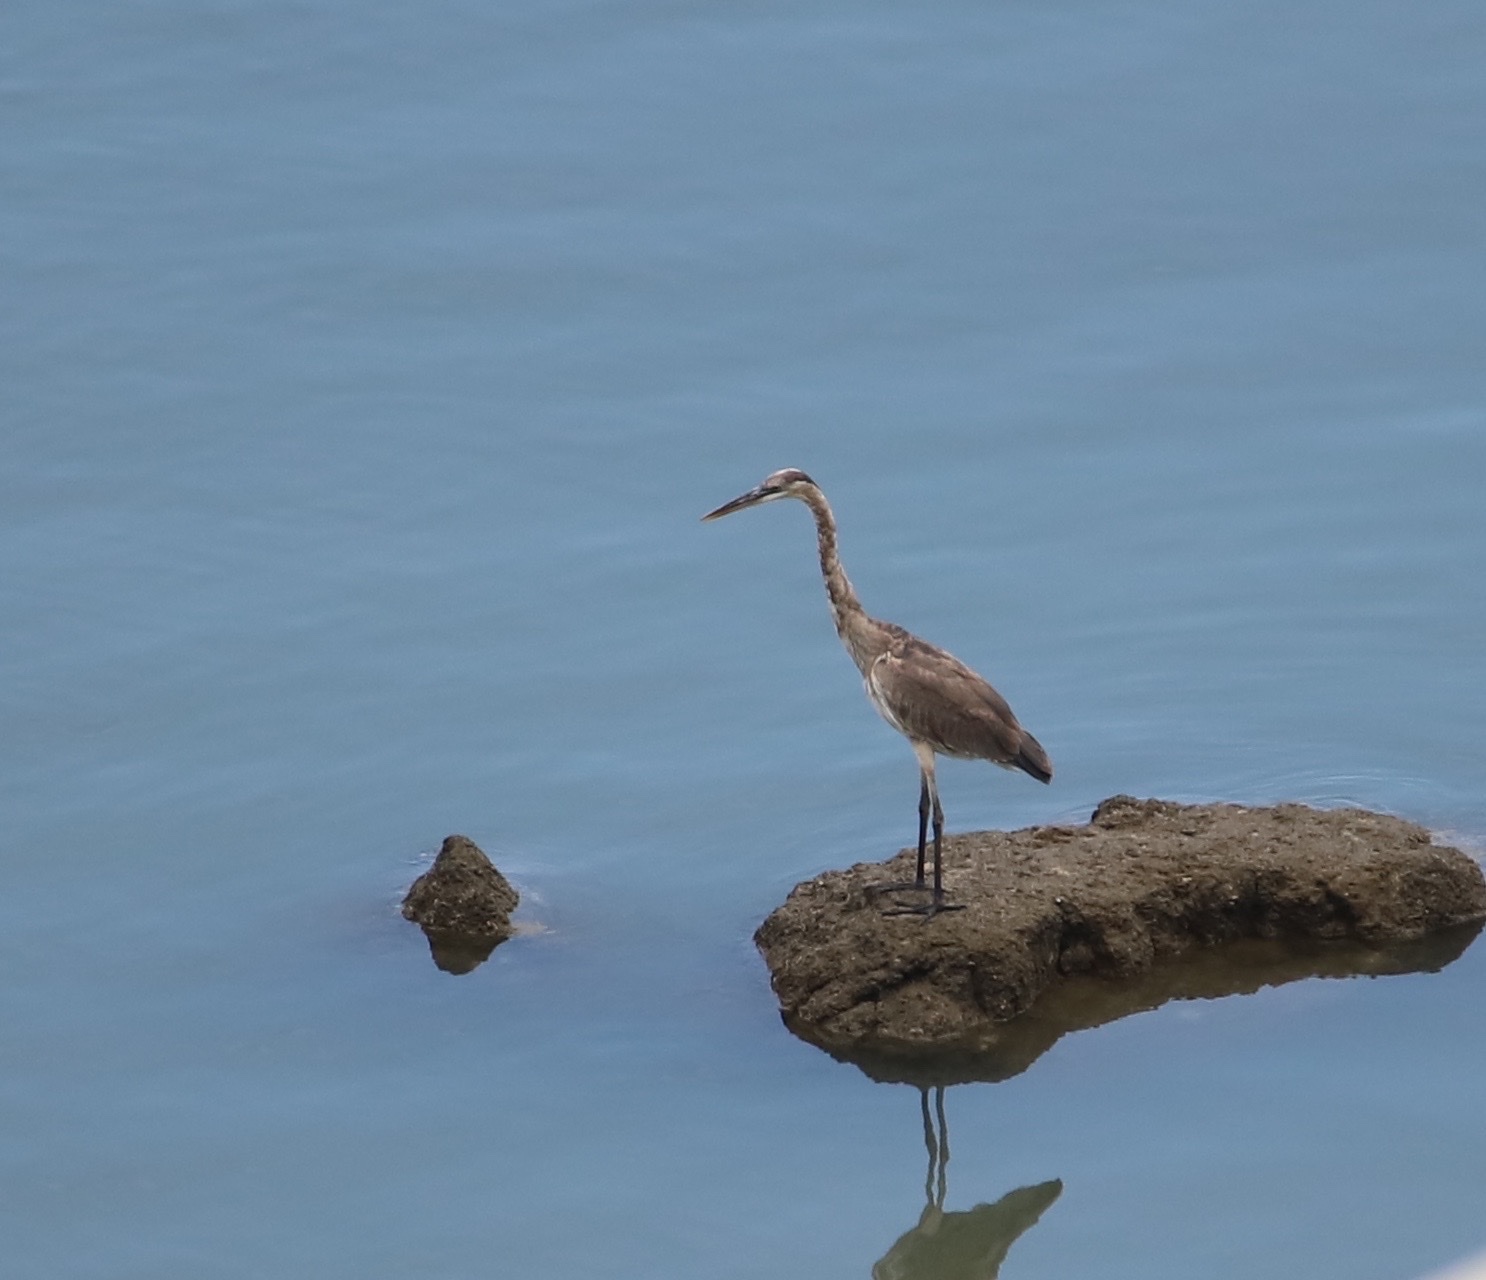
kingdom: Animalia
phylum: Chordata
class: Aves
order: Pelecaniformes
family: Ardeidae
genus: Ardea
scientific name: Ardea herodias
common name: Great blue heron
